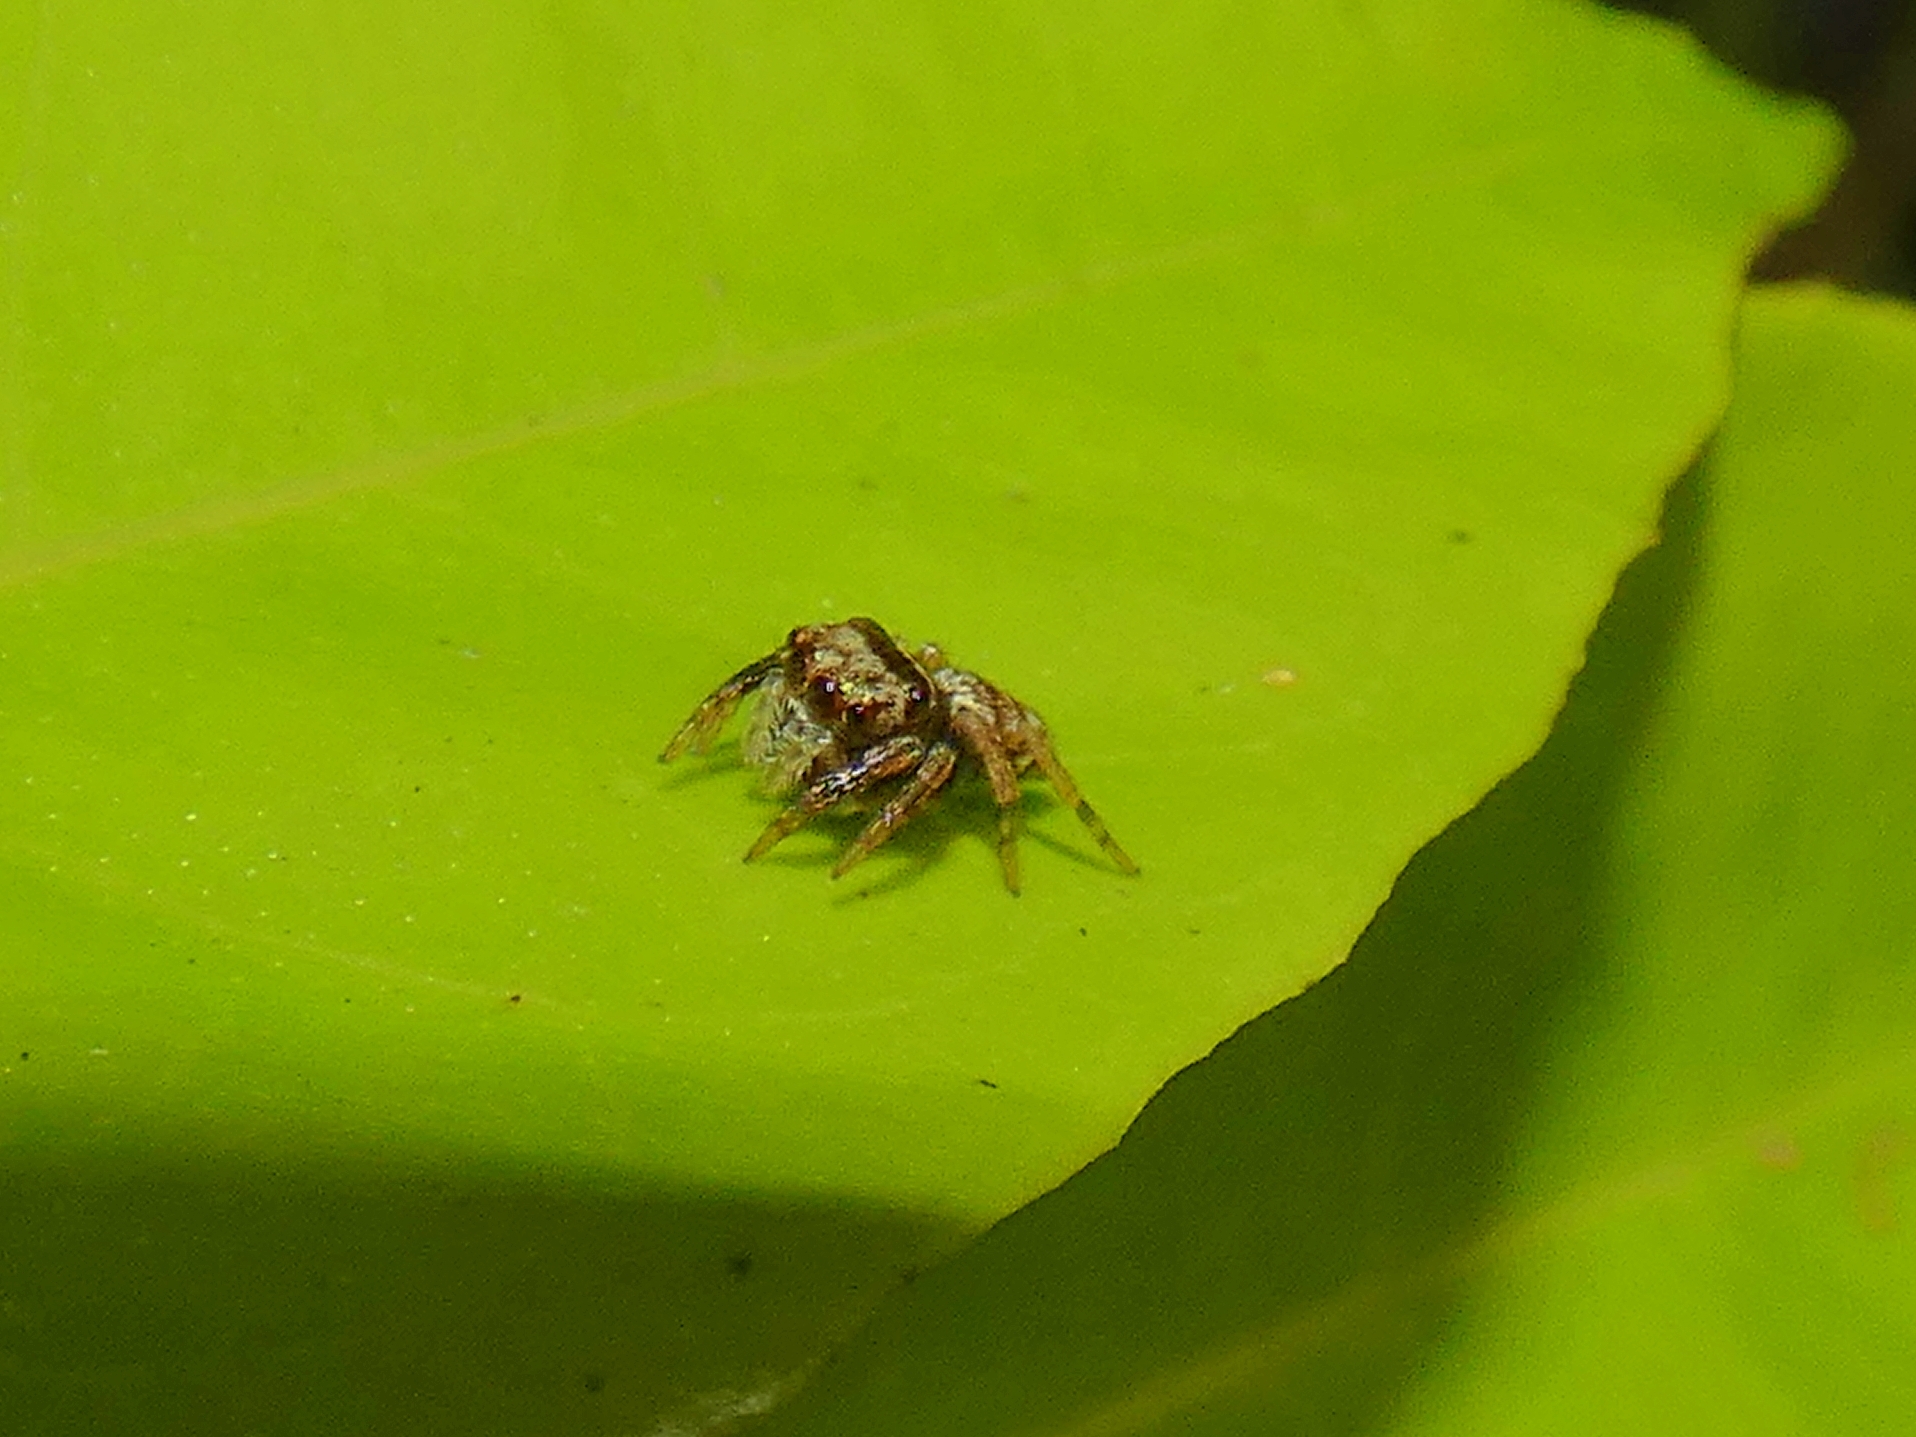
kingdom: Animalia
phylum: Arthropoda
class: Arachnida
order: Araneae
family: Salticidae
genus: Euryattus
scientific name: Euryattus bleekeri
